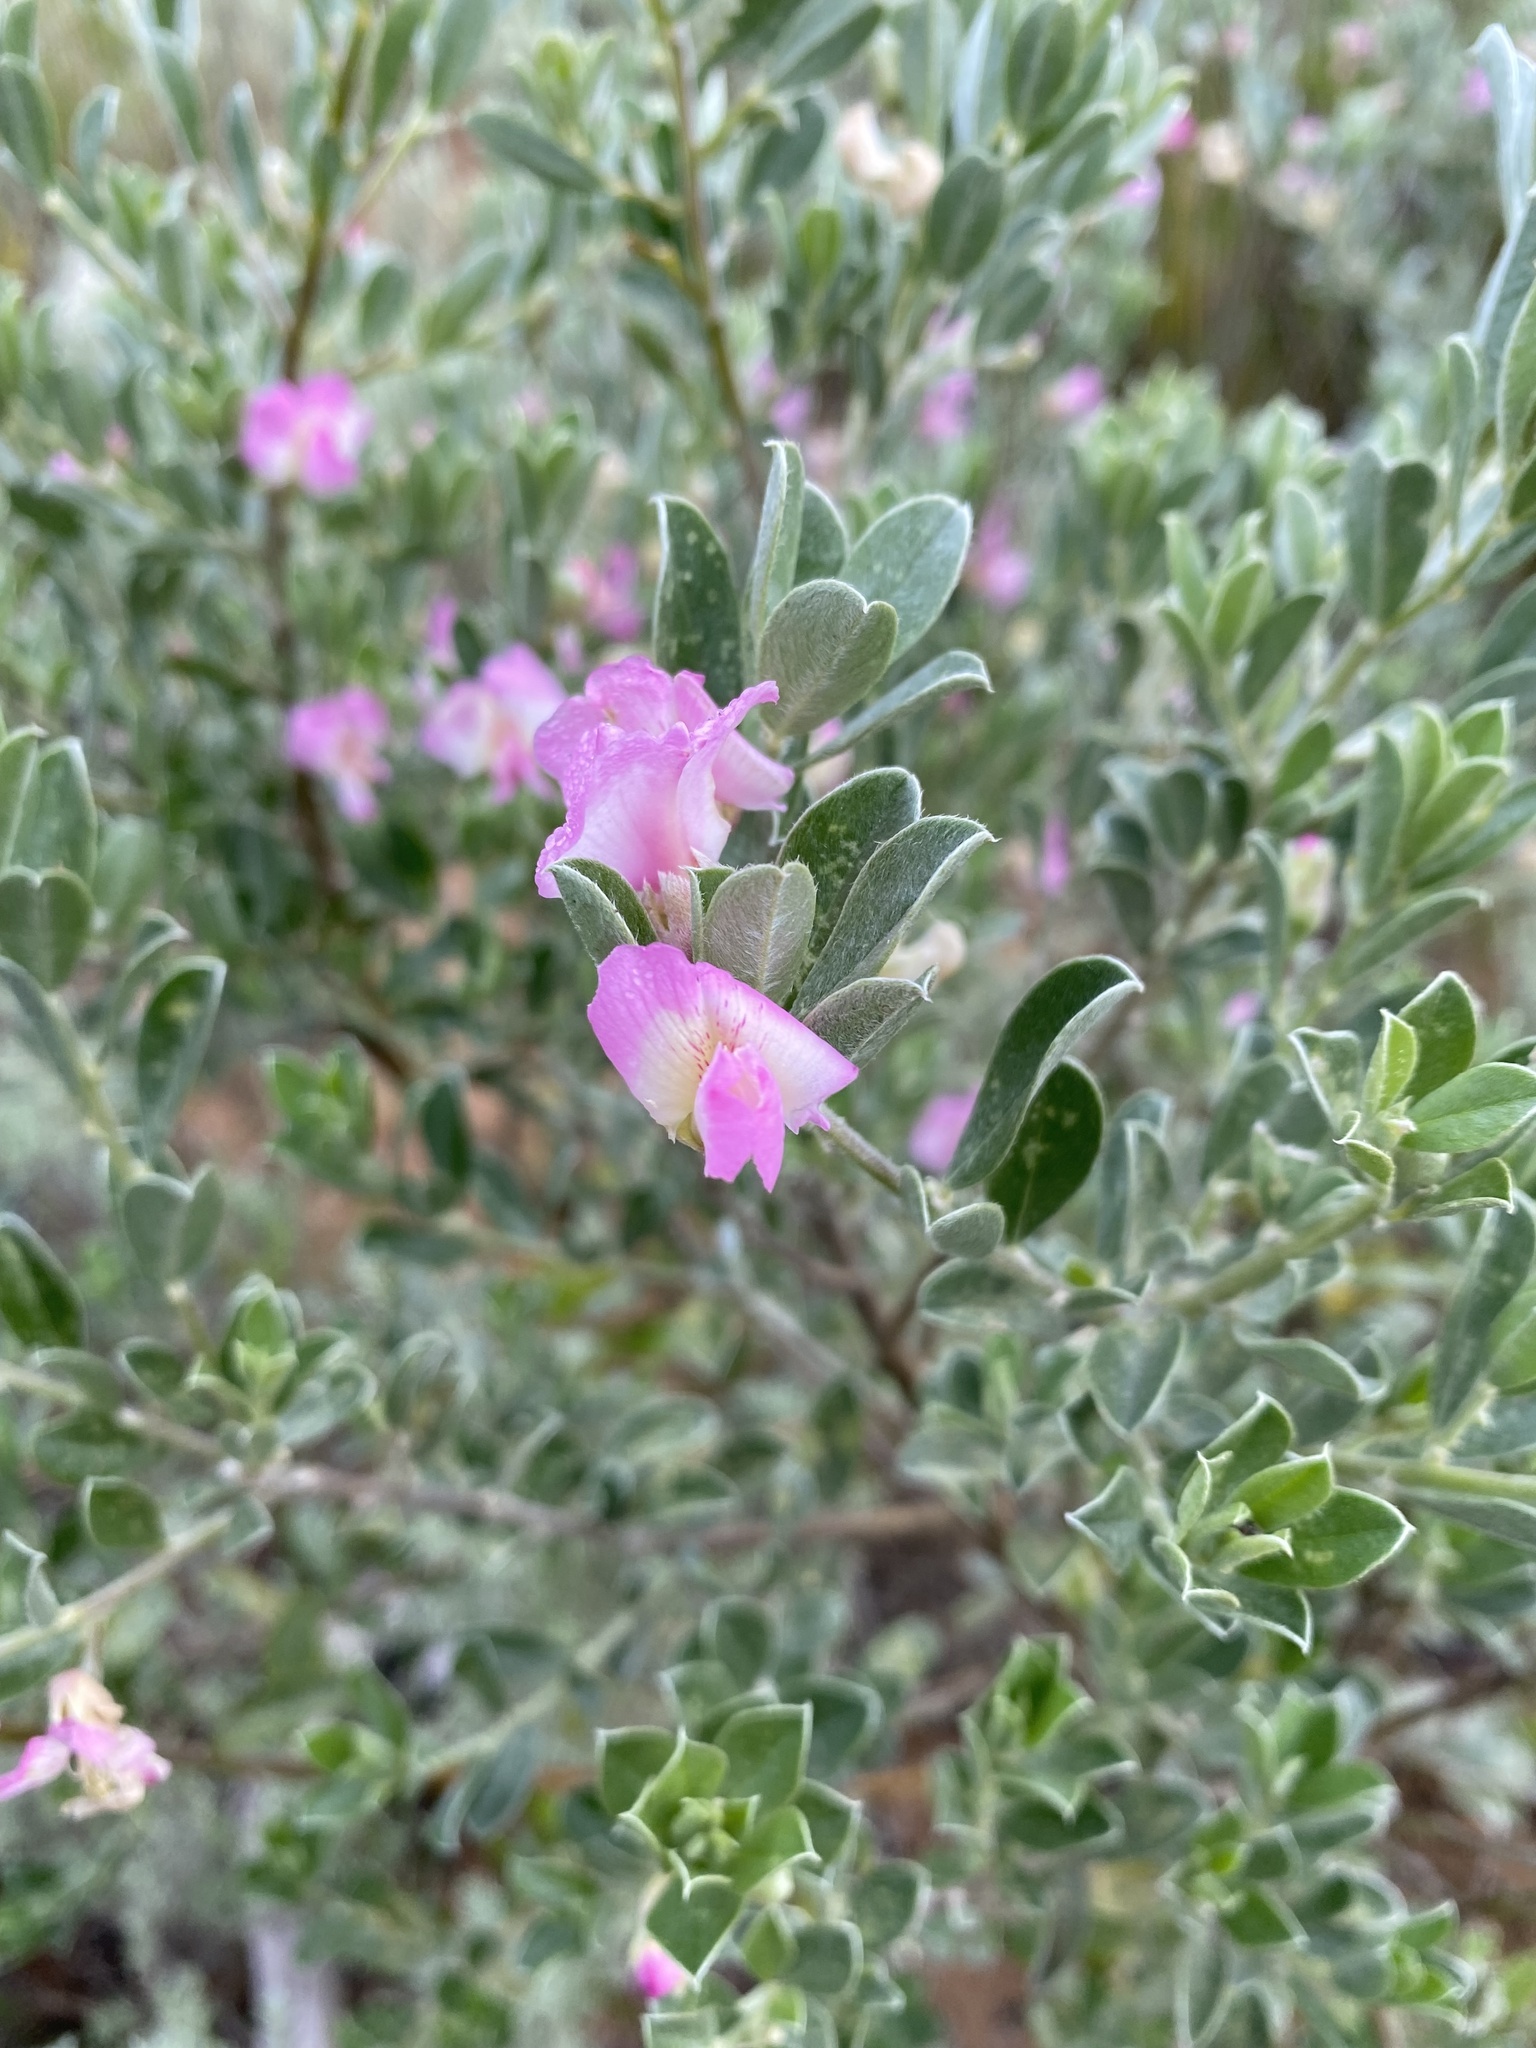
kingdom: Plantae
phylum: Tracheophyta
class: Magnoliopsida
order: Fabales
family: Fabaceae
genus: Podalyria
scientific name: Podalyria myrtillifolia
